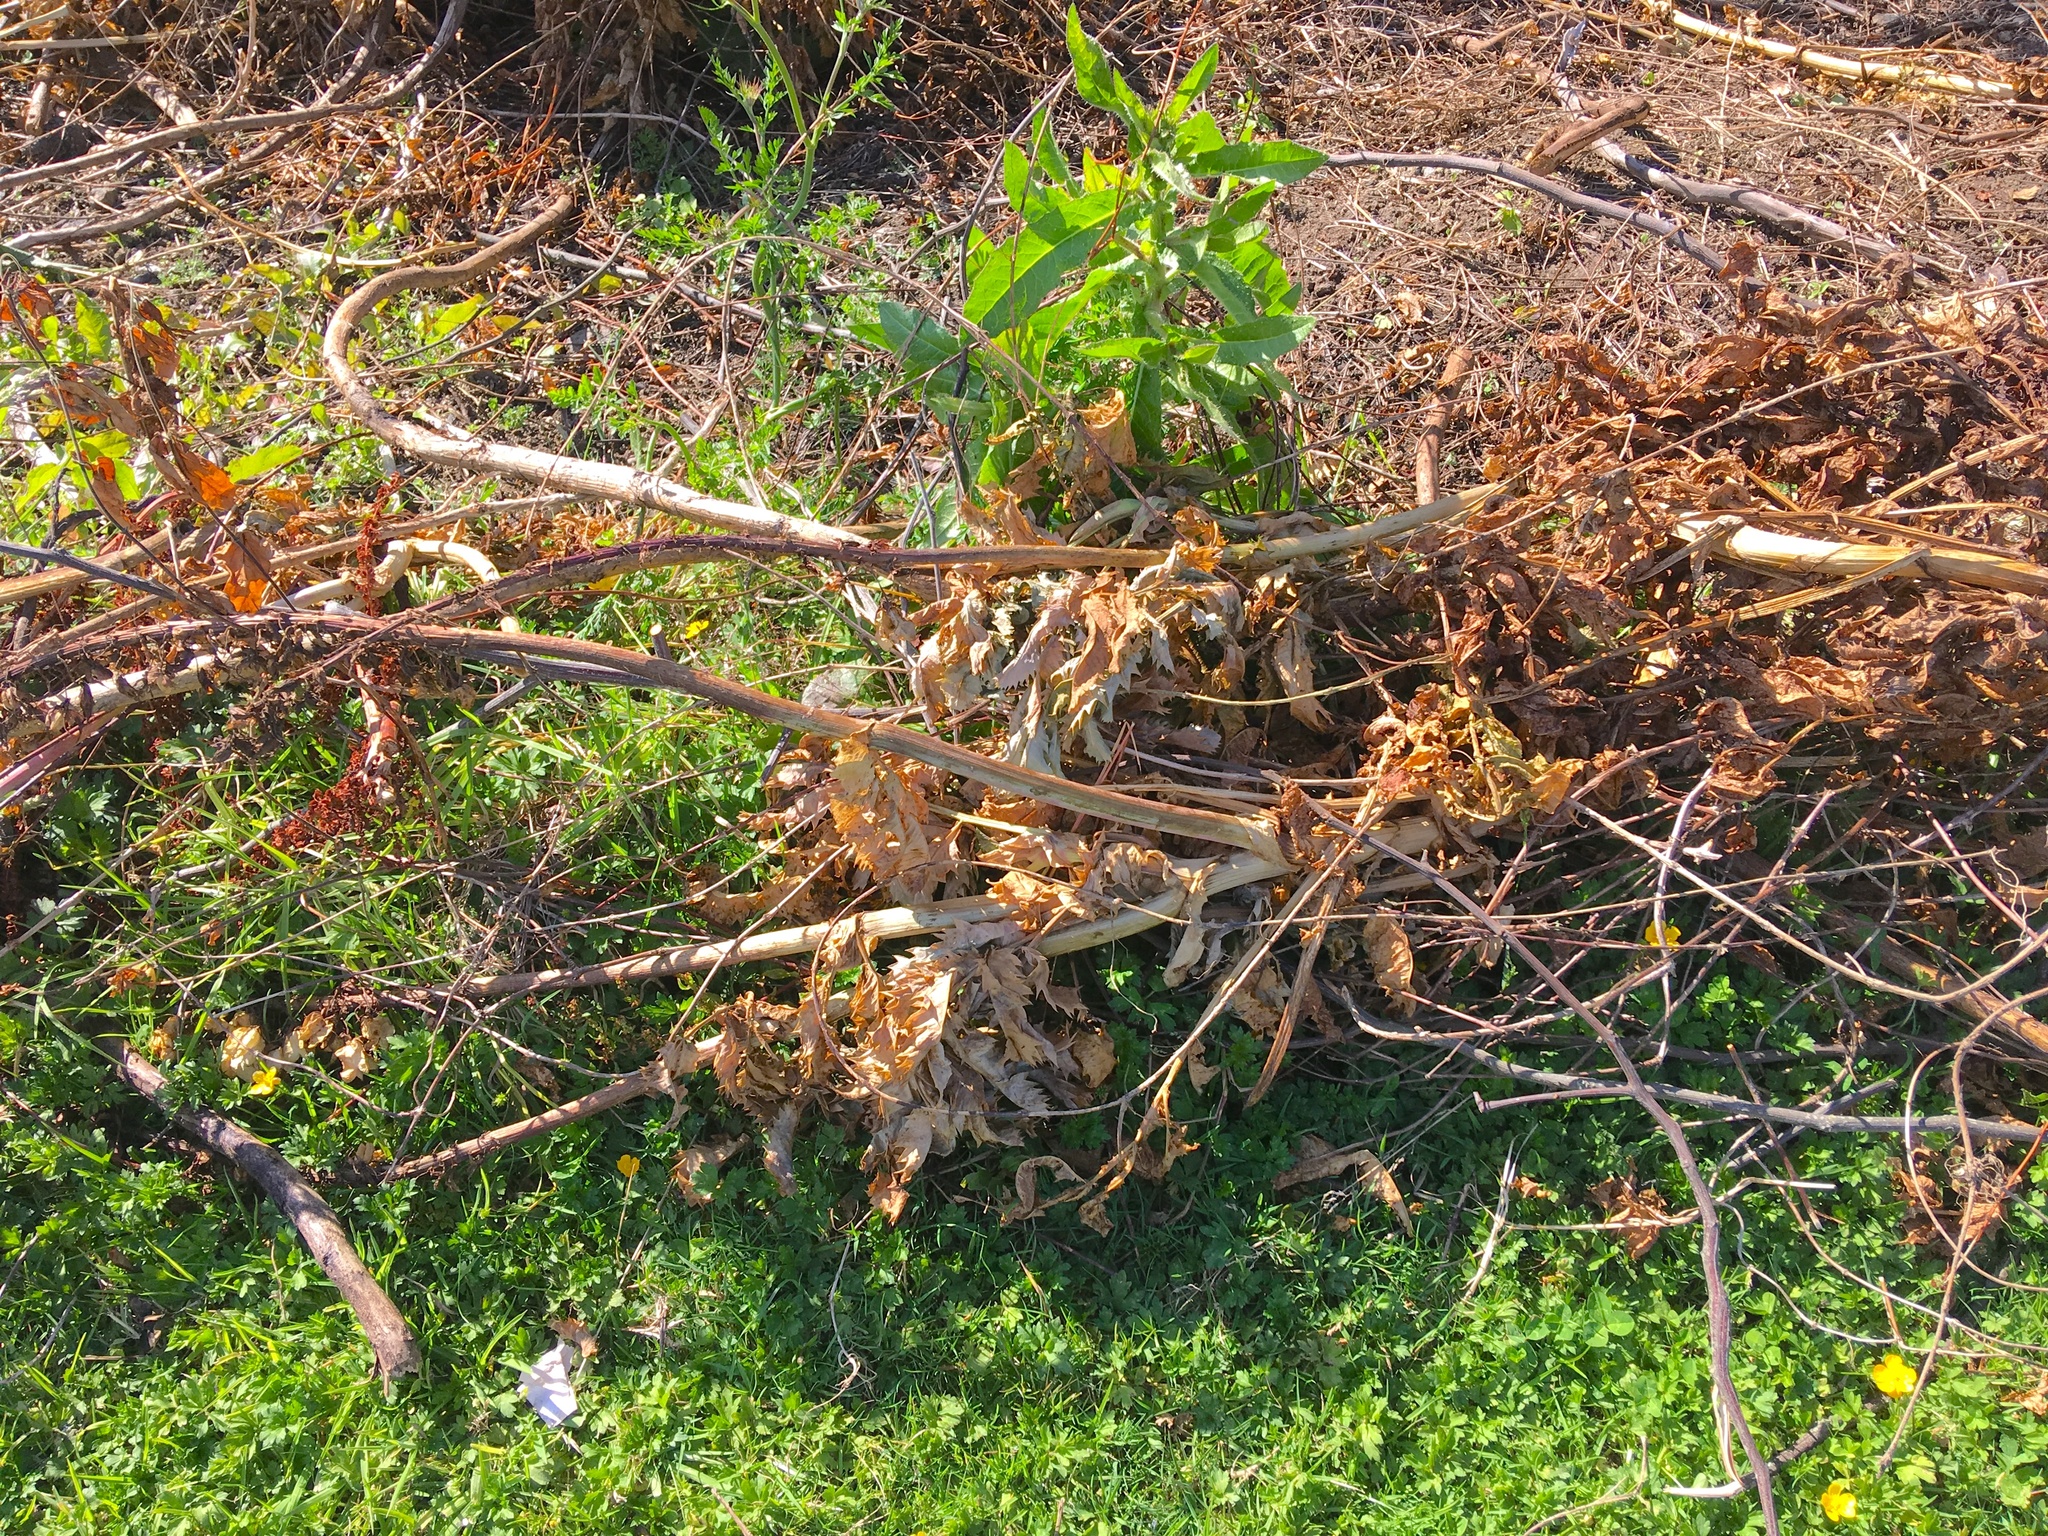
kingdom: Plantae
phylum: Tracheophyta
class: Magnoliopsida
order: Asterales
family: Asteraceae
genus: Helminthotheca
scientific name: Helminthotheca echioides
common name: Ox-tongue
